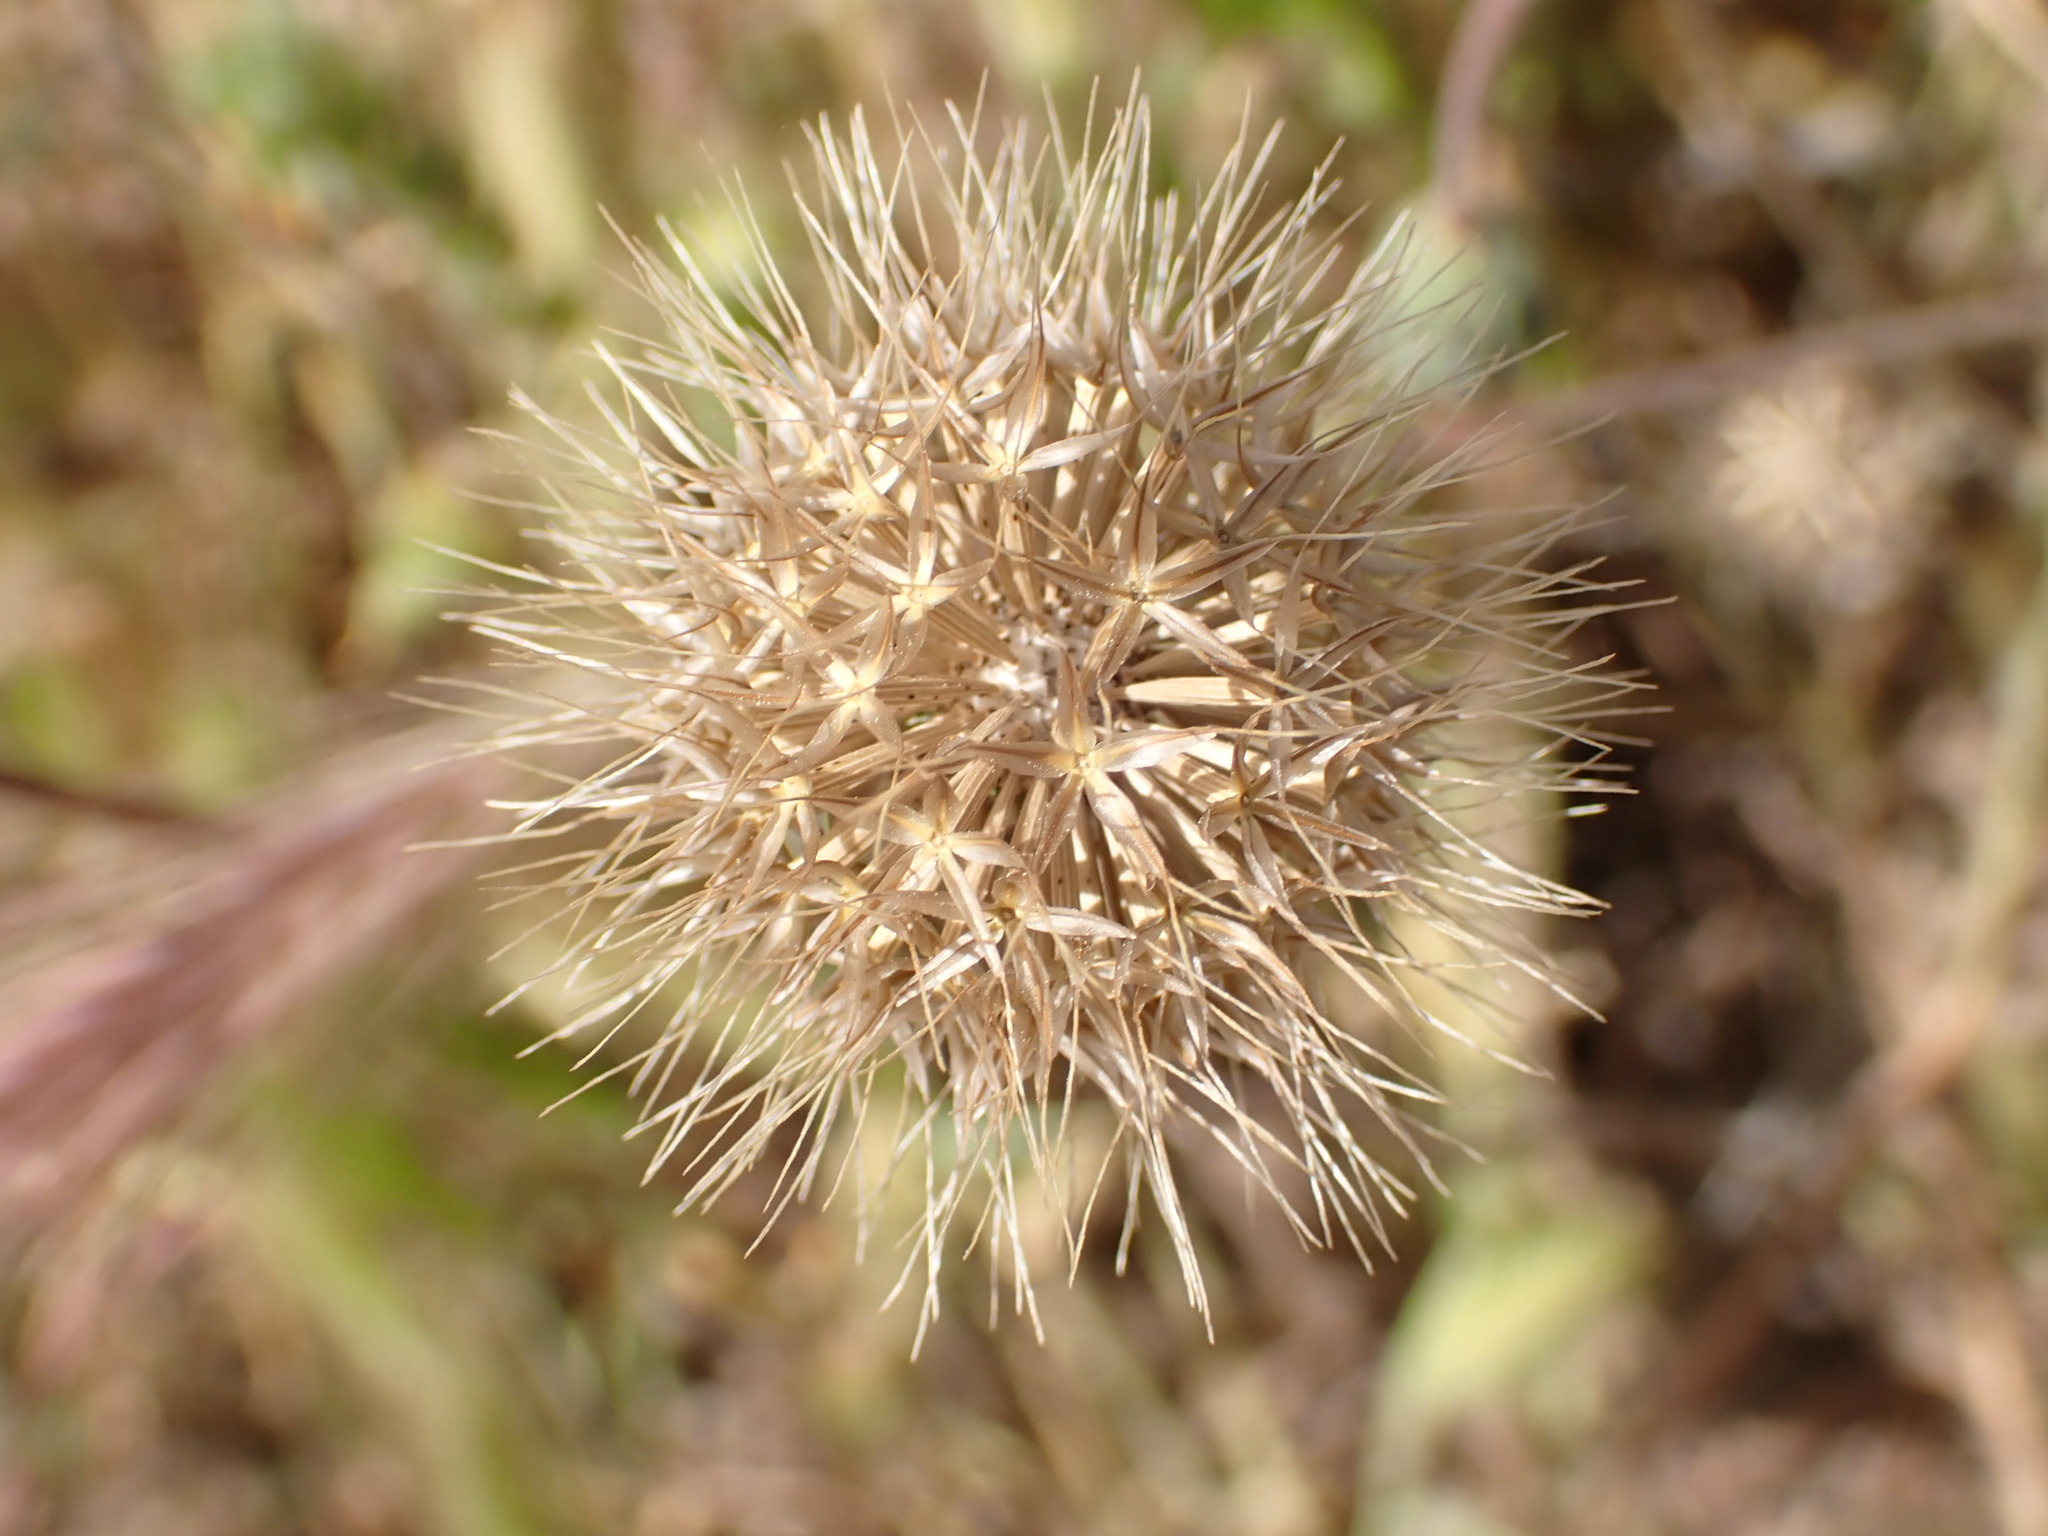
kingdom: Plantae
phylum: Tracheophyta
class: Magnoliopsida
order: Asterales
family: Asteraceae
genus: Microseris
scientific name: Microseris campestris
